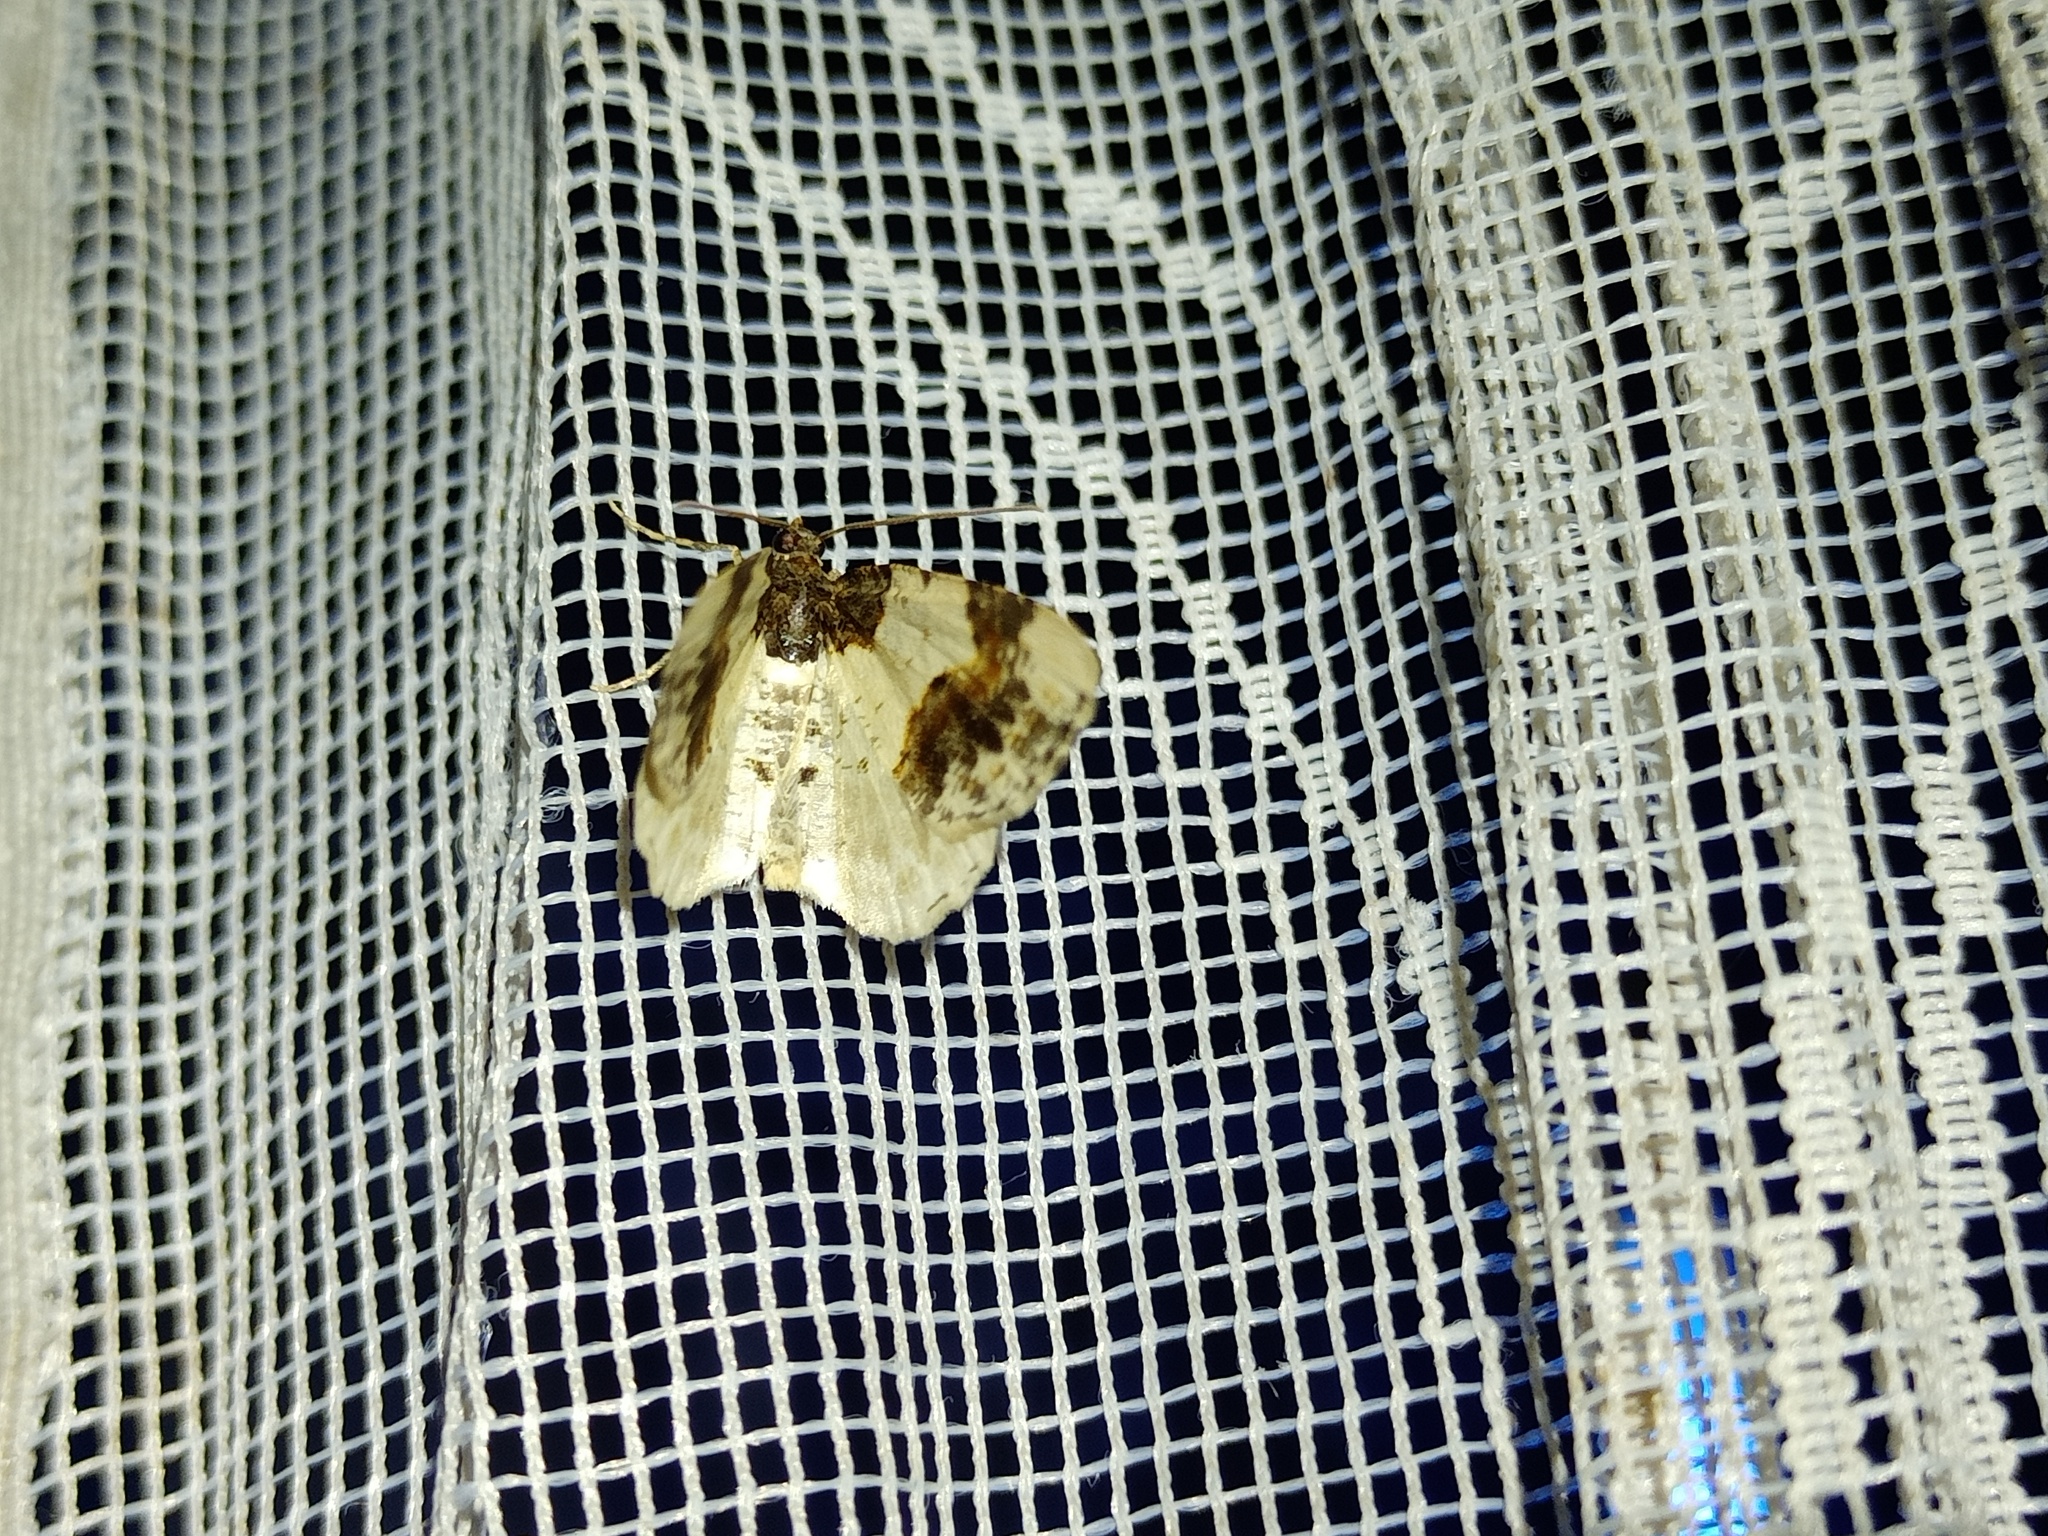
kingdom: Animalia
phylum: Arthropoda
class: Insecta
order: Lepidoptera
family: Geometridae
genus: Ligdia
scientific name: Ligdia adustata
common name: Scorched carpet
